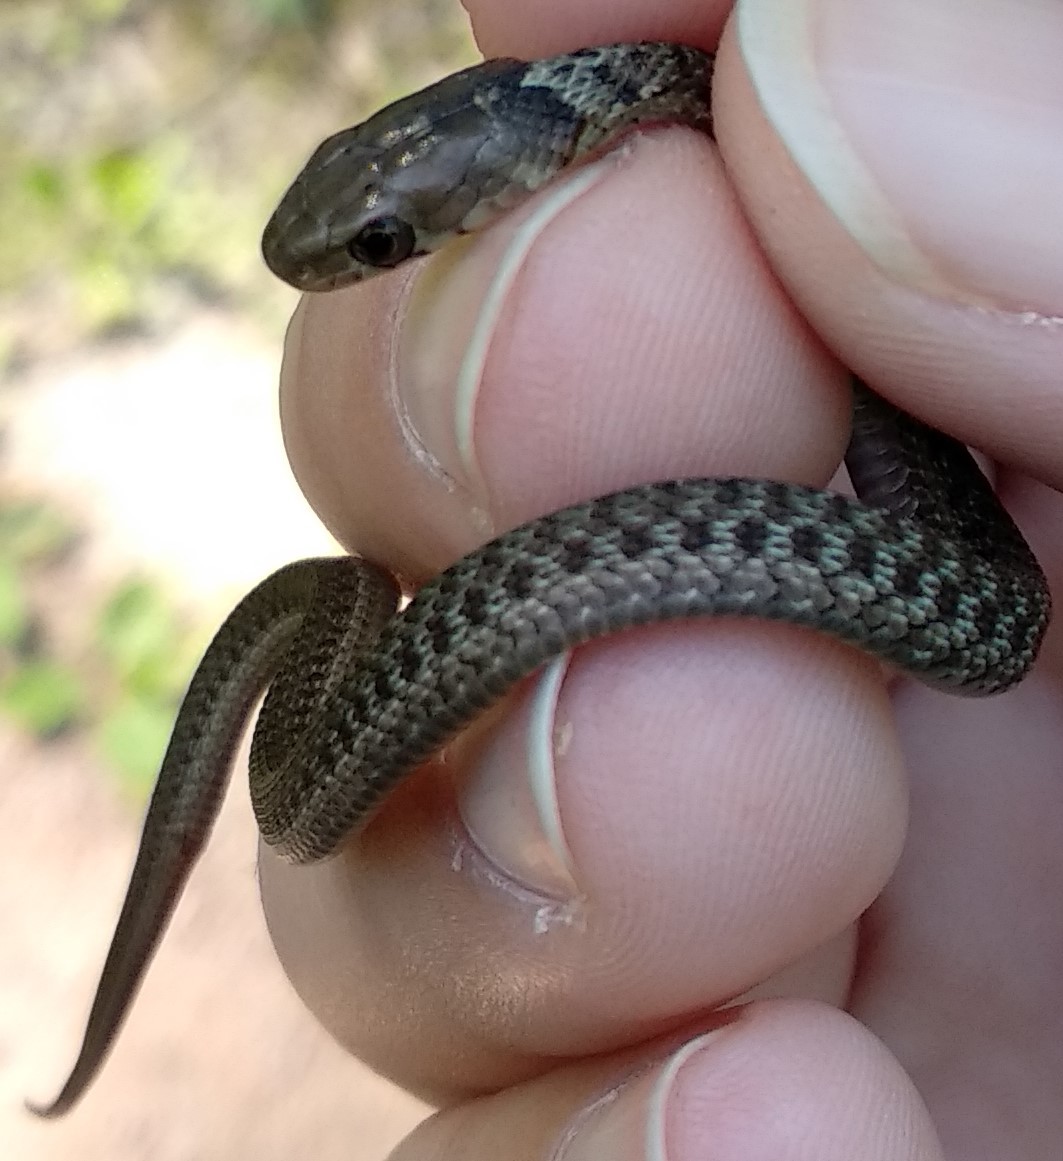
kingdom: Animalia
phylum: Chordata
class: Squamata
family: Colubridae
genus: Thamnophis
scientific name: Thamnophis sirtalis
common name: Common garter snake
